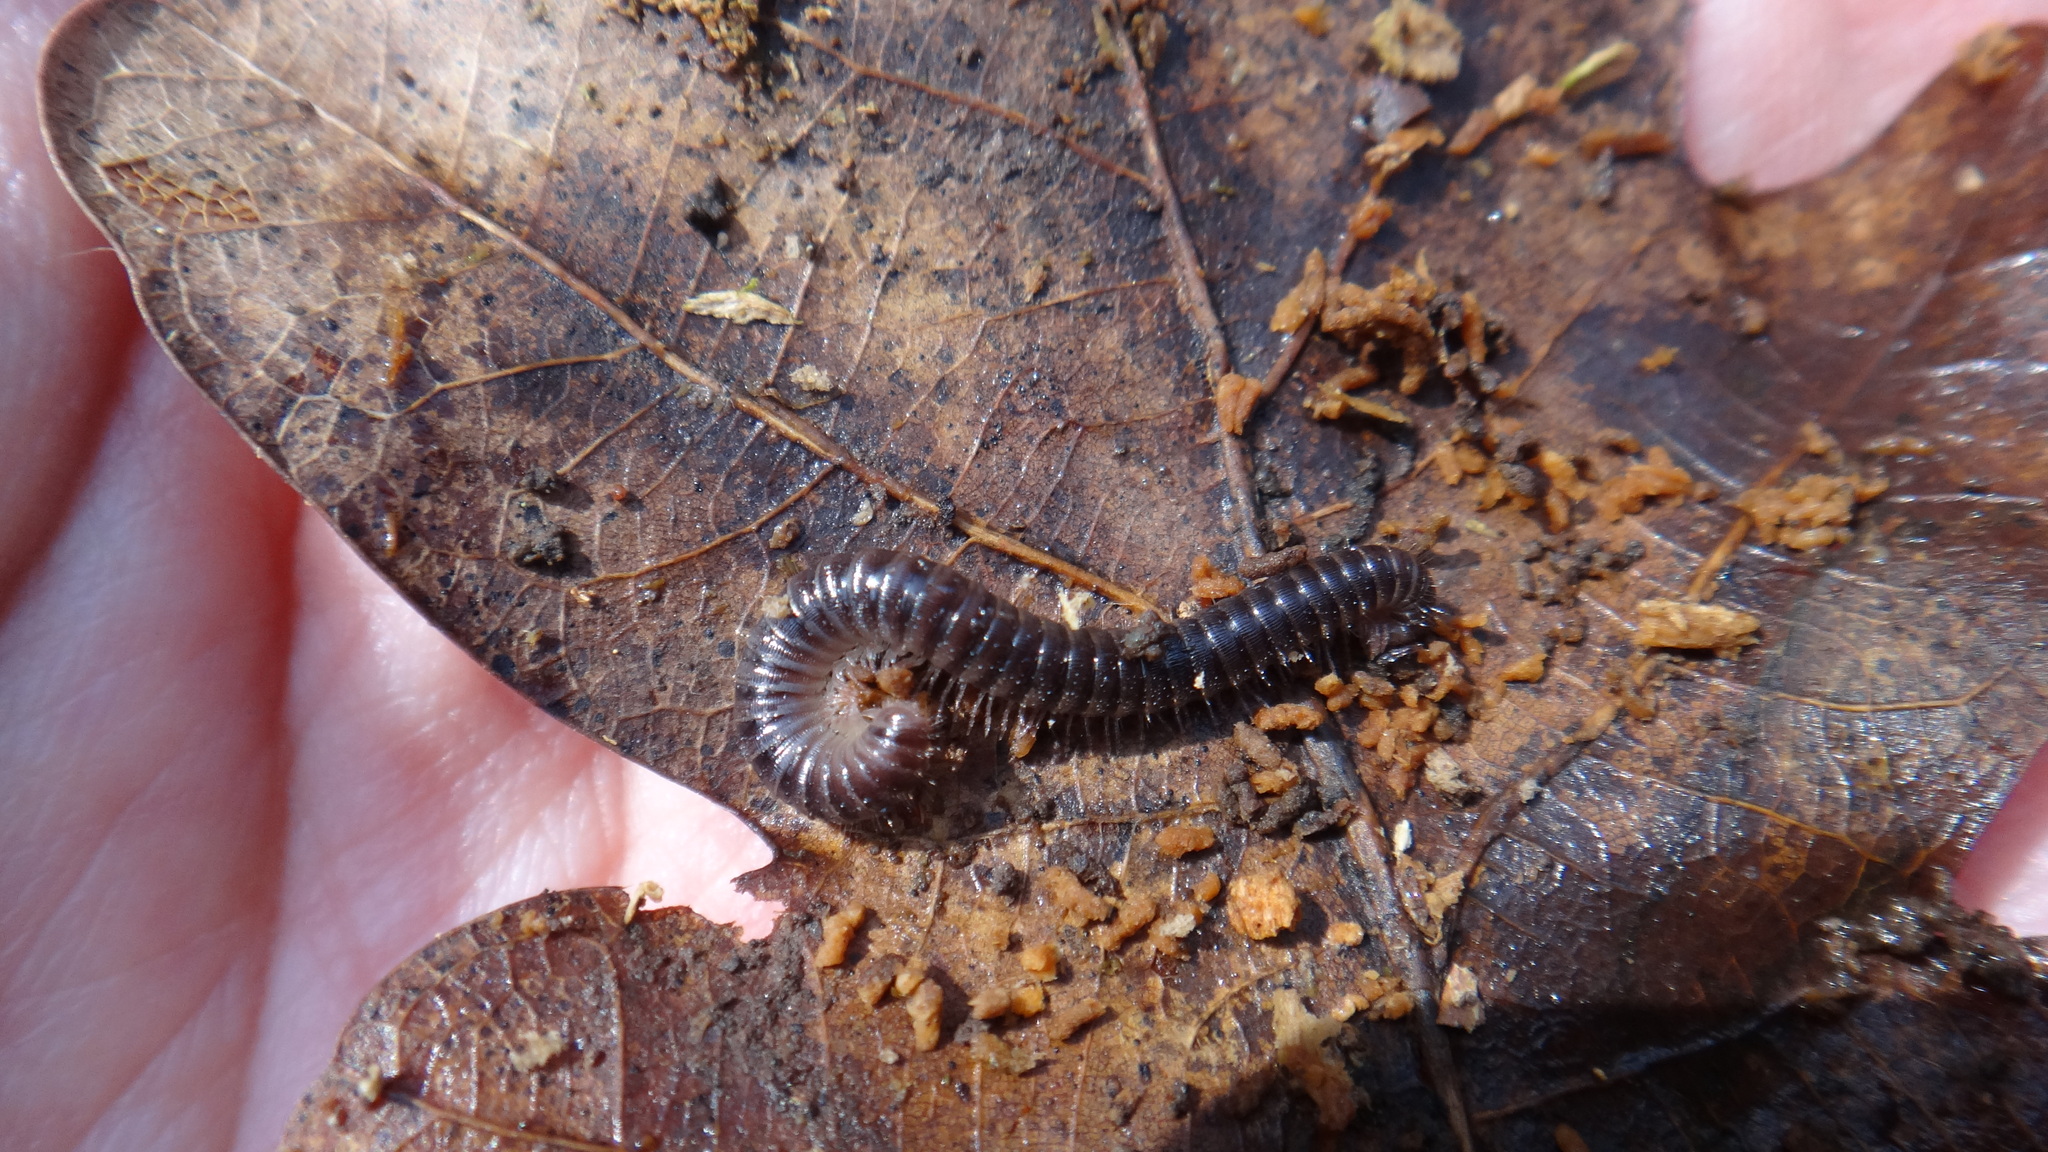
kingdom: Animalia
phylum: Arthropoda
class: Diplopoda
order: Julida
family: Julidae
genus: Unciger
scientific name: Unciger transsilvanicus
